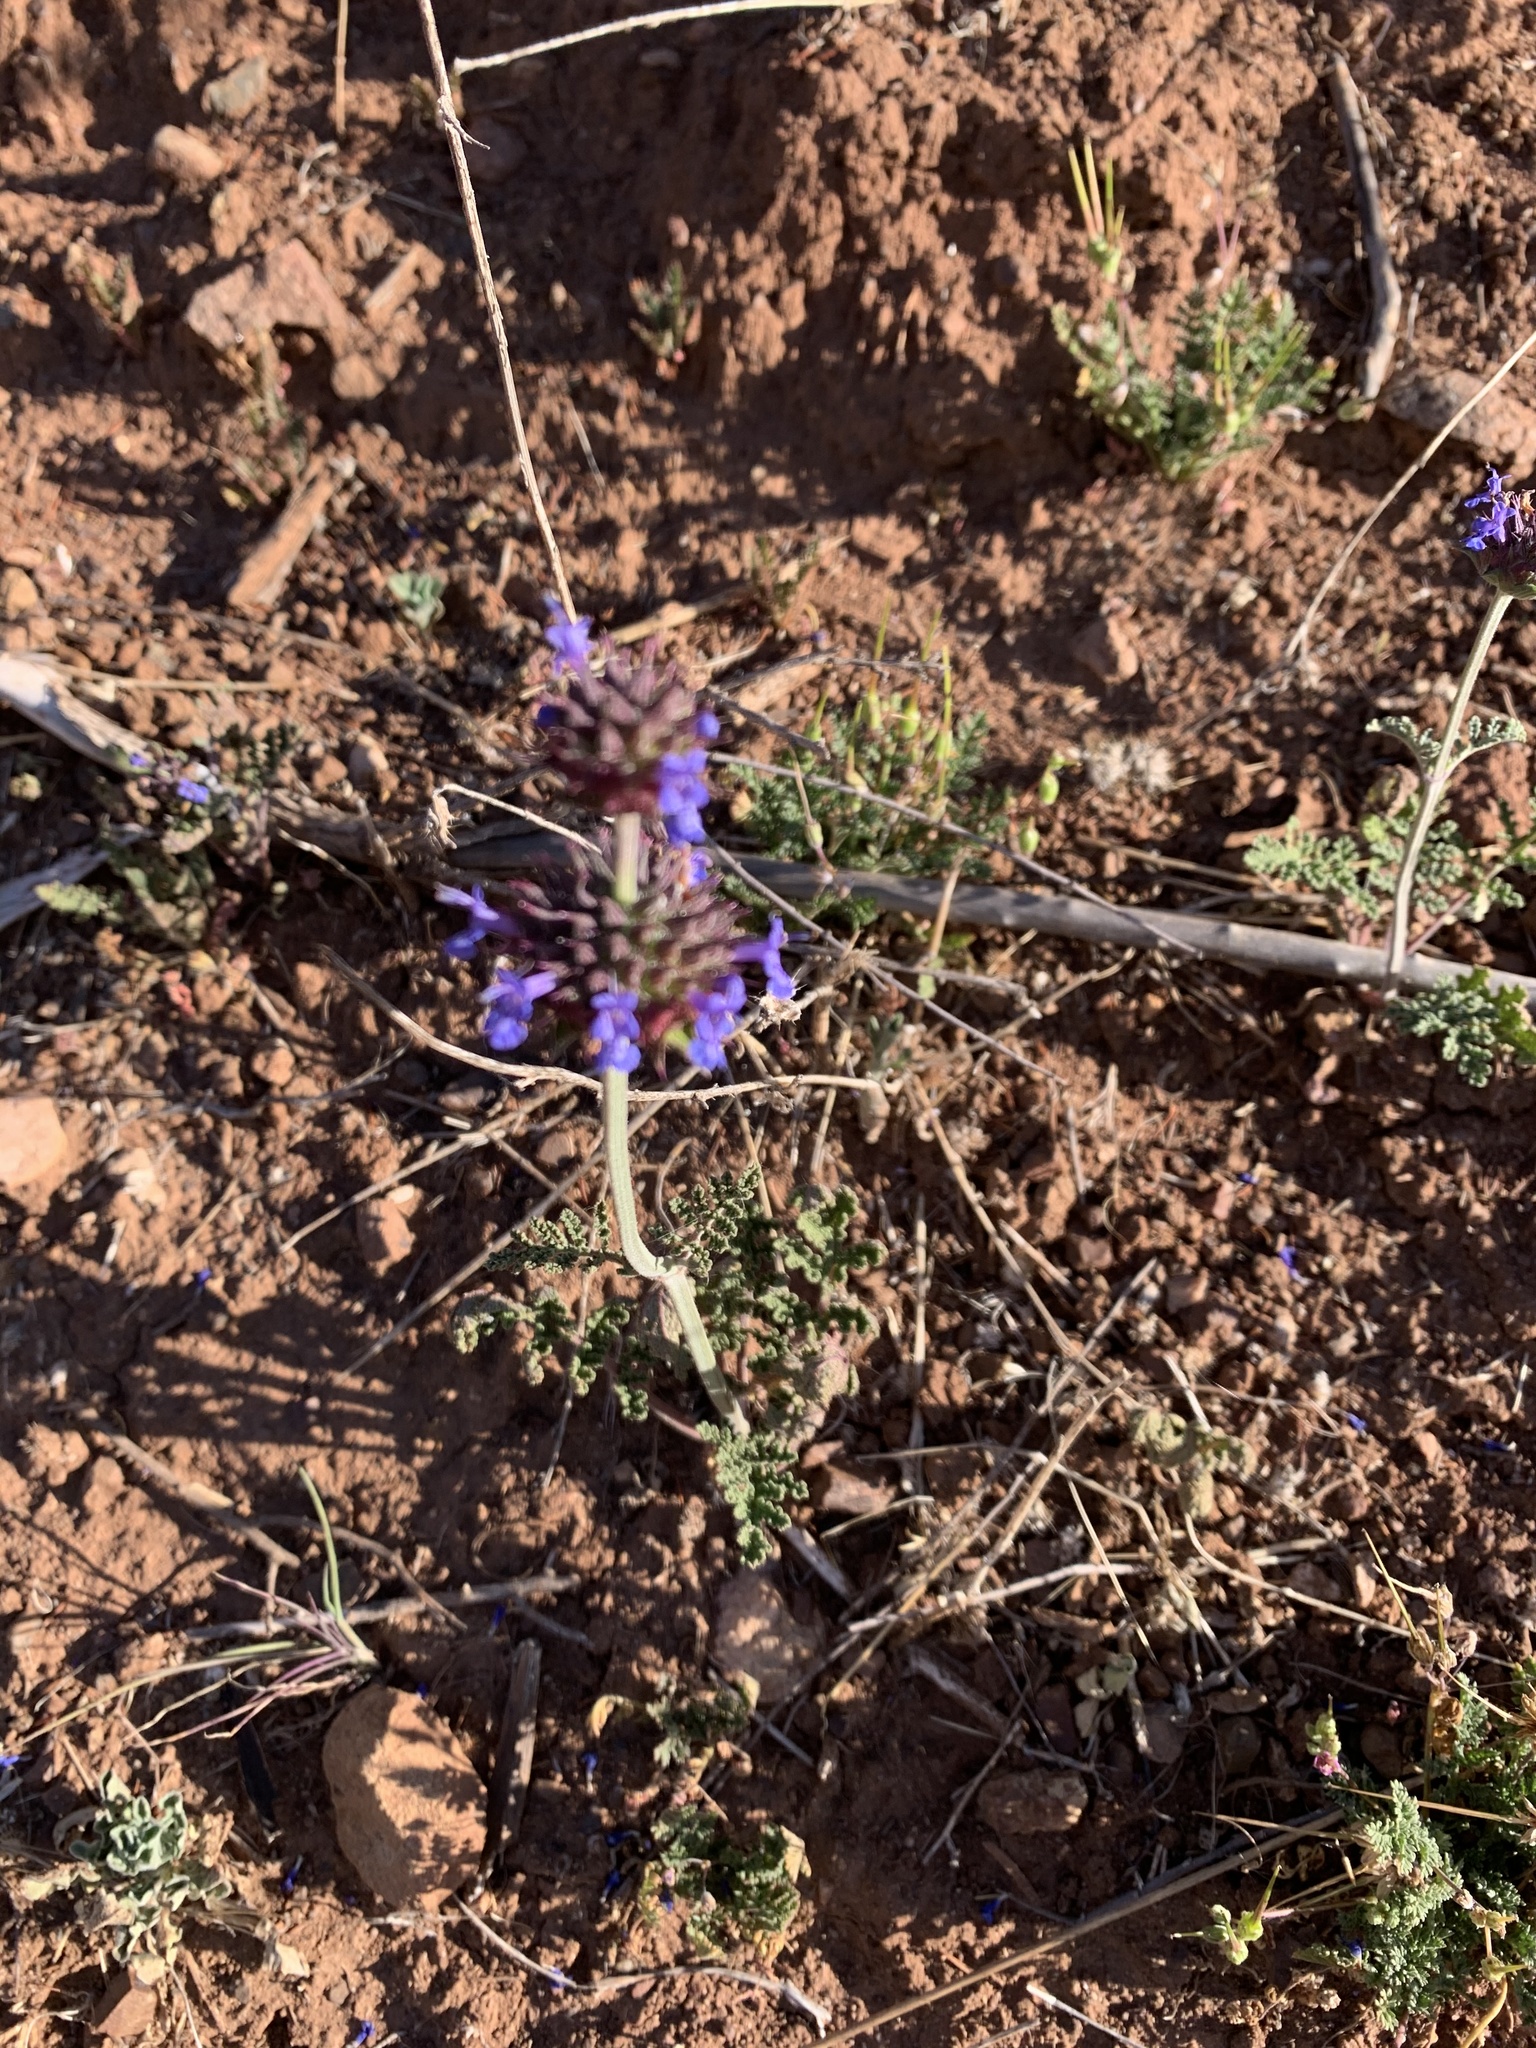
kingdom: Plantae
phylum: Tracheophyta
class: Magnoliopsida
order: Lamiales
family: Lamiaceae
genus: Salvia
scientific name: Salvia columbariae
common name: Chia
